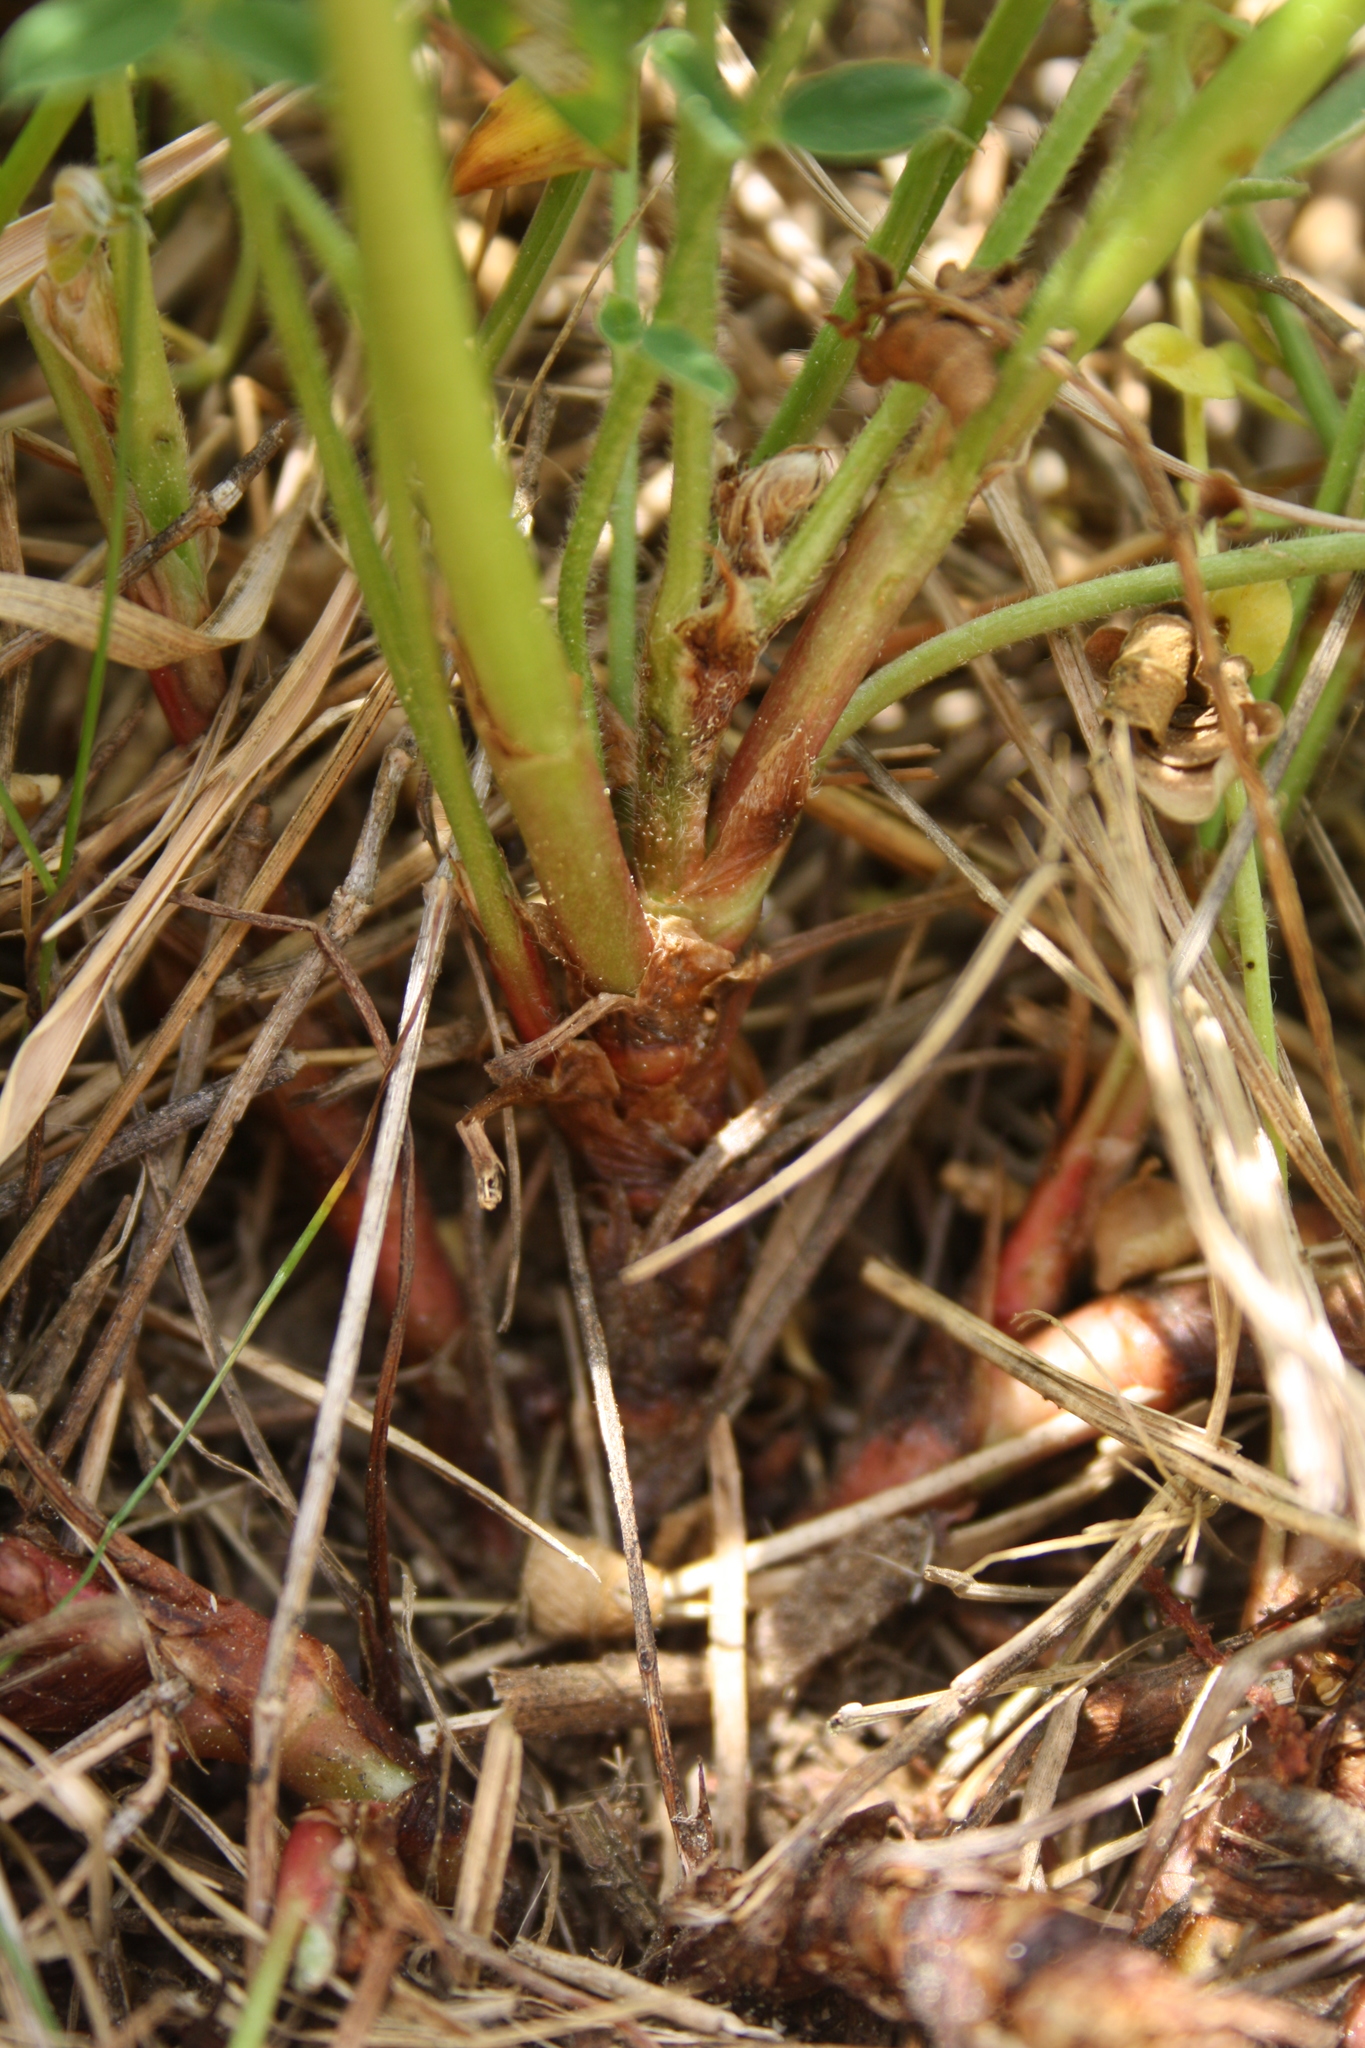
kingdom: Plantae
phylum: Tracheophyta
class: Magnoliopsida
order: Fabales
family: Fabaceae
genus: Onobrychis
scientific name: Onobrychis viciifolia
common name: Sainfoin
